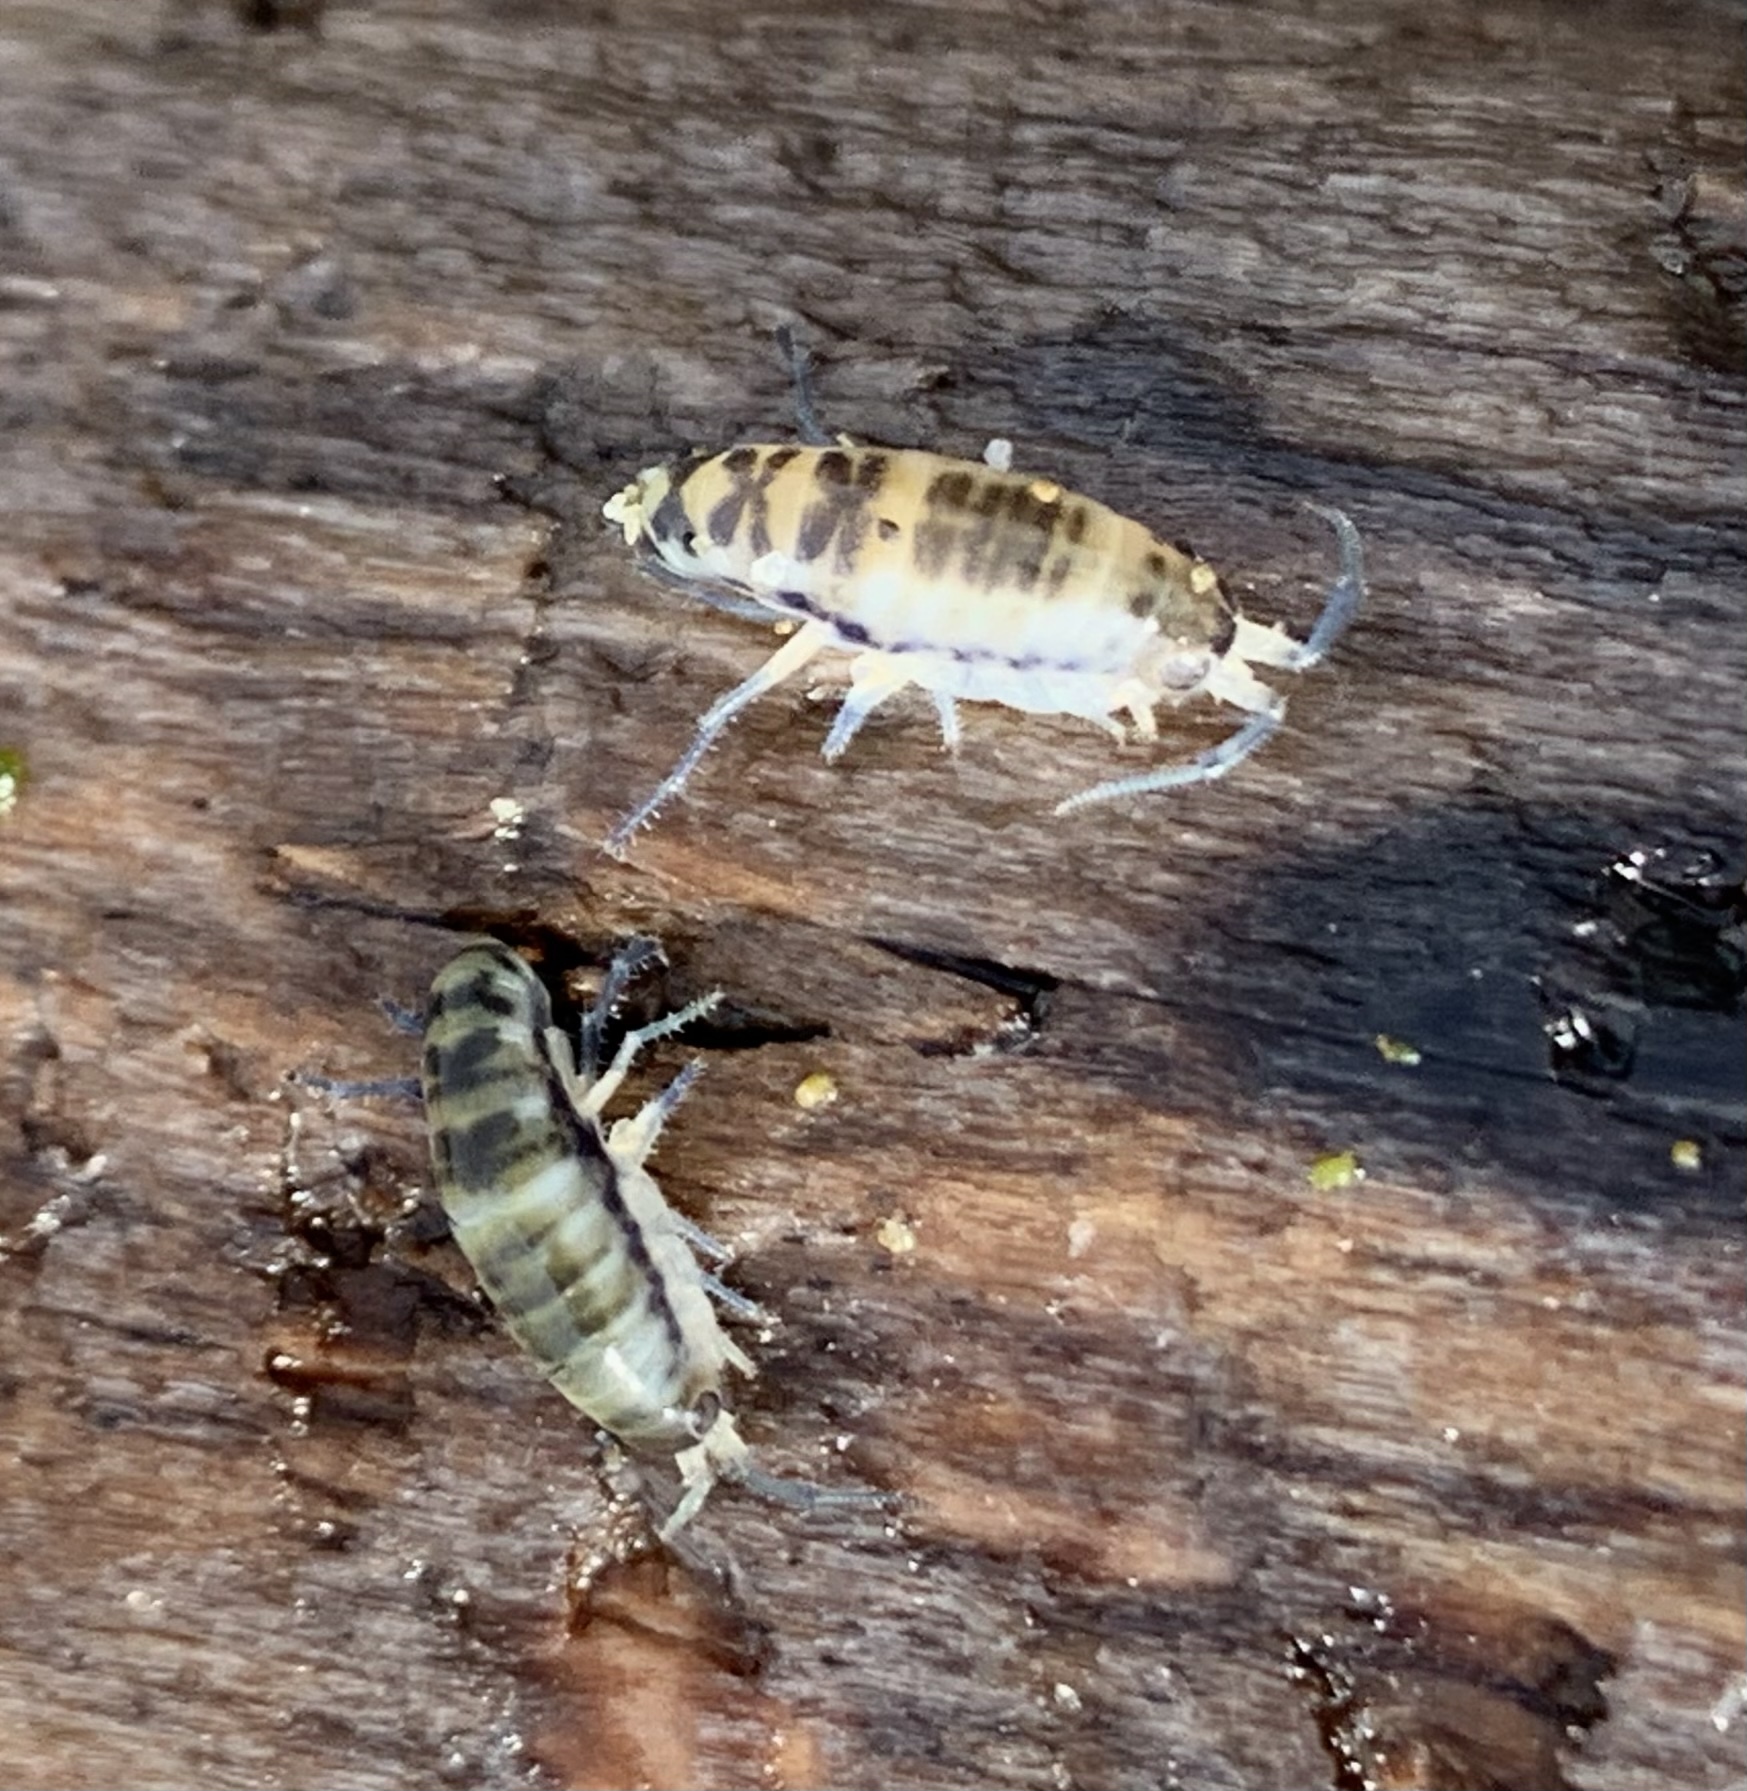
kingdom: Animalia
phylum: Arthropoda
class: Malacostraca
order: Amphipoda
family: Talitridae
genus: Megalorchestia
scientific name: Megalorchestia columbiana
